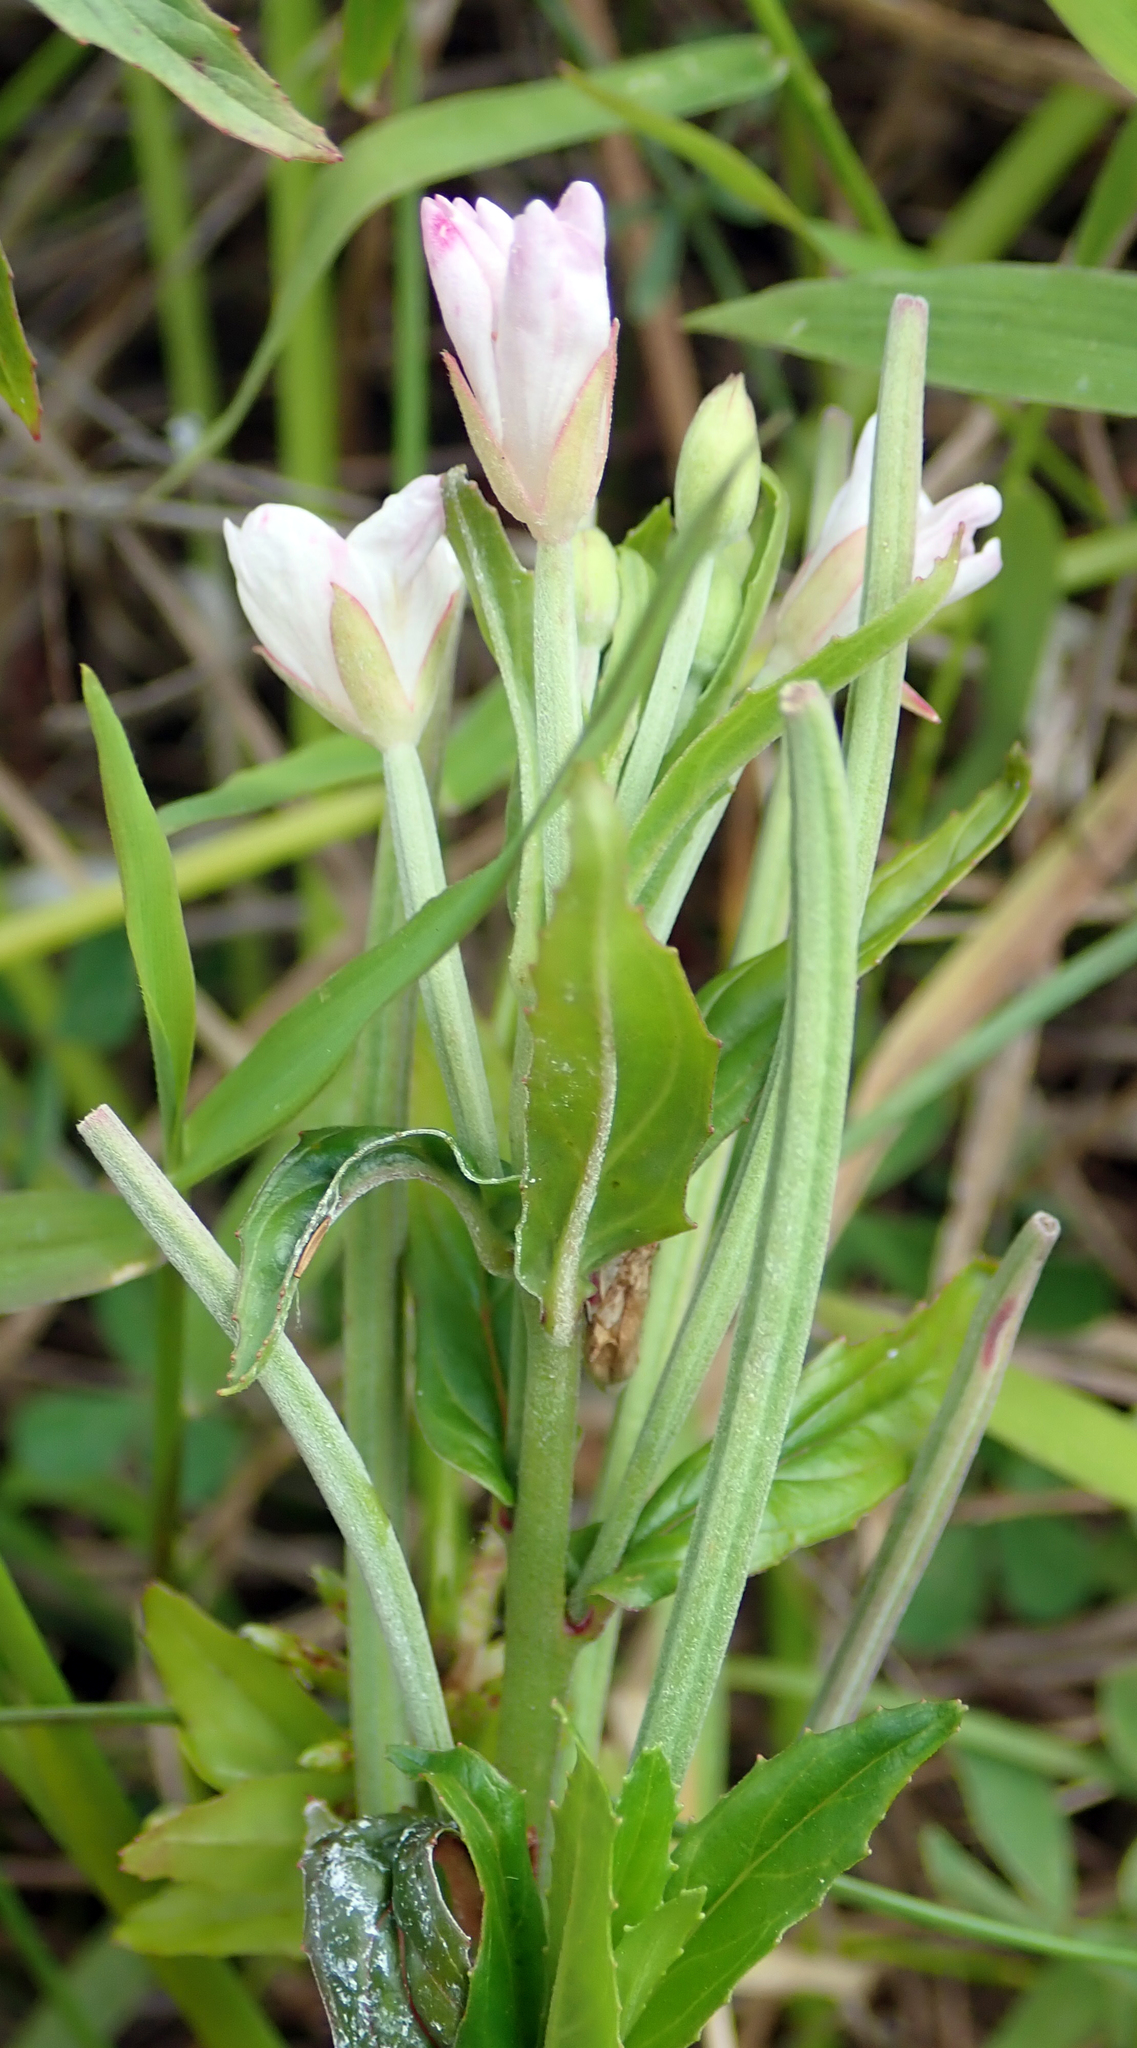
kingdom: Plantae
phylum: Tracheophyta
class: Magnoliopsida
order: Myrtales
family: Onagraceae
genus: Epilobium
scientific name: Epilobium pallidiflorum
